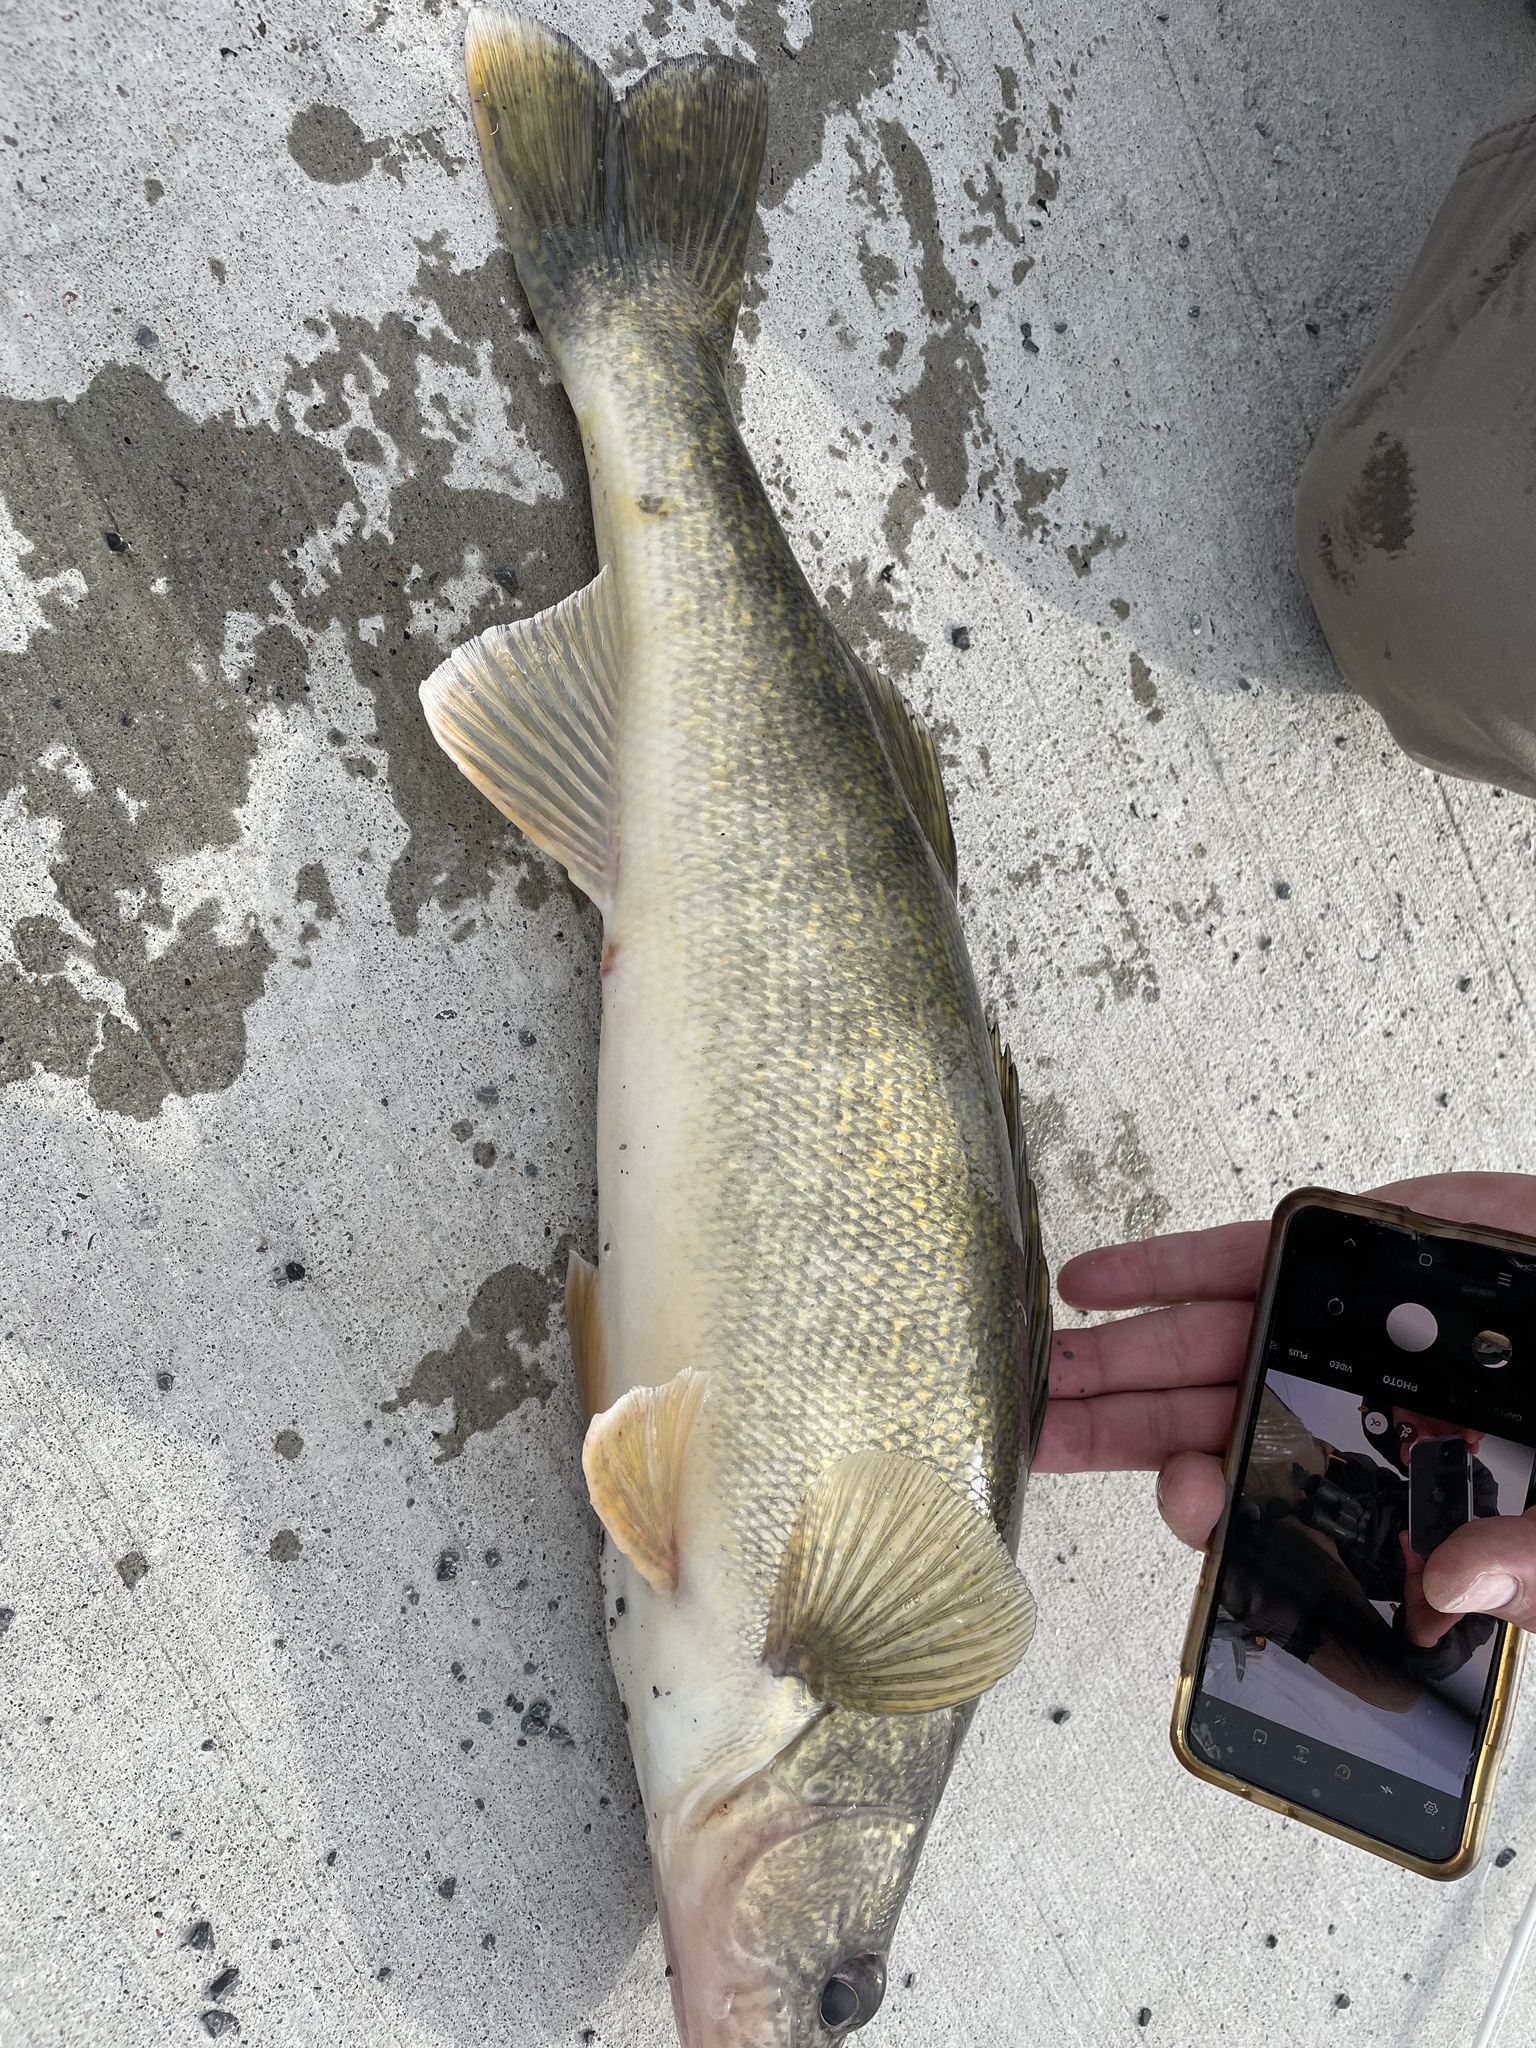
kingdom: Animalia
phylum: Chordata
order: Perciformes
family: Percidae
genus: Sander
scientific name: Sander vitreus
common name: Walleye
